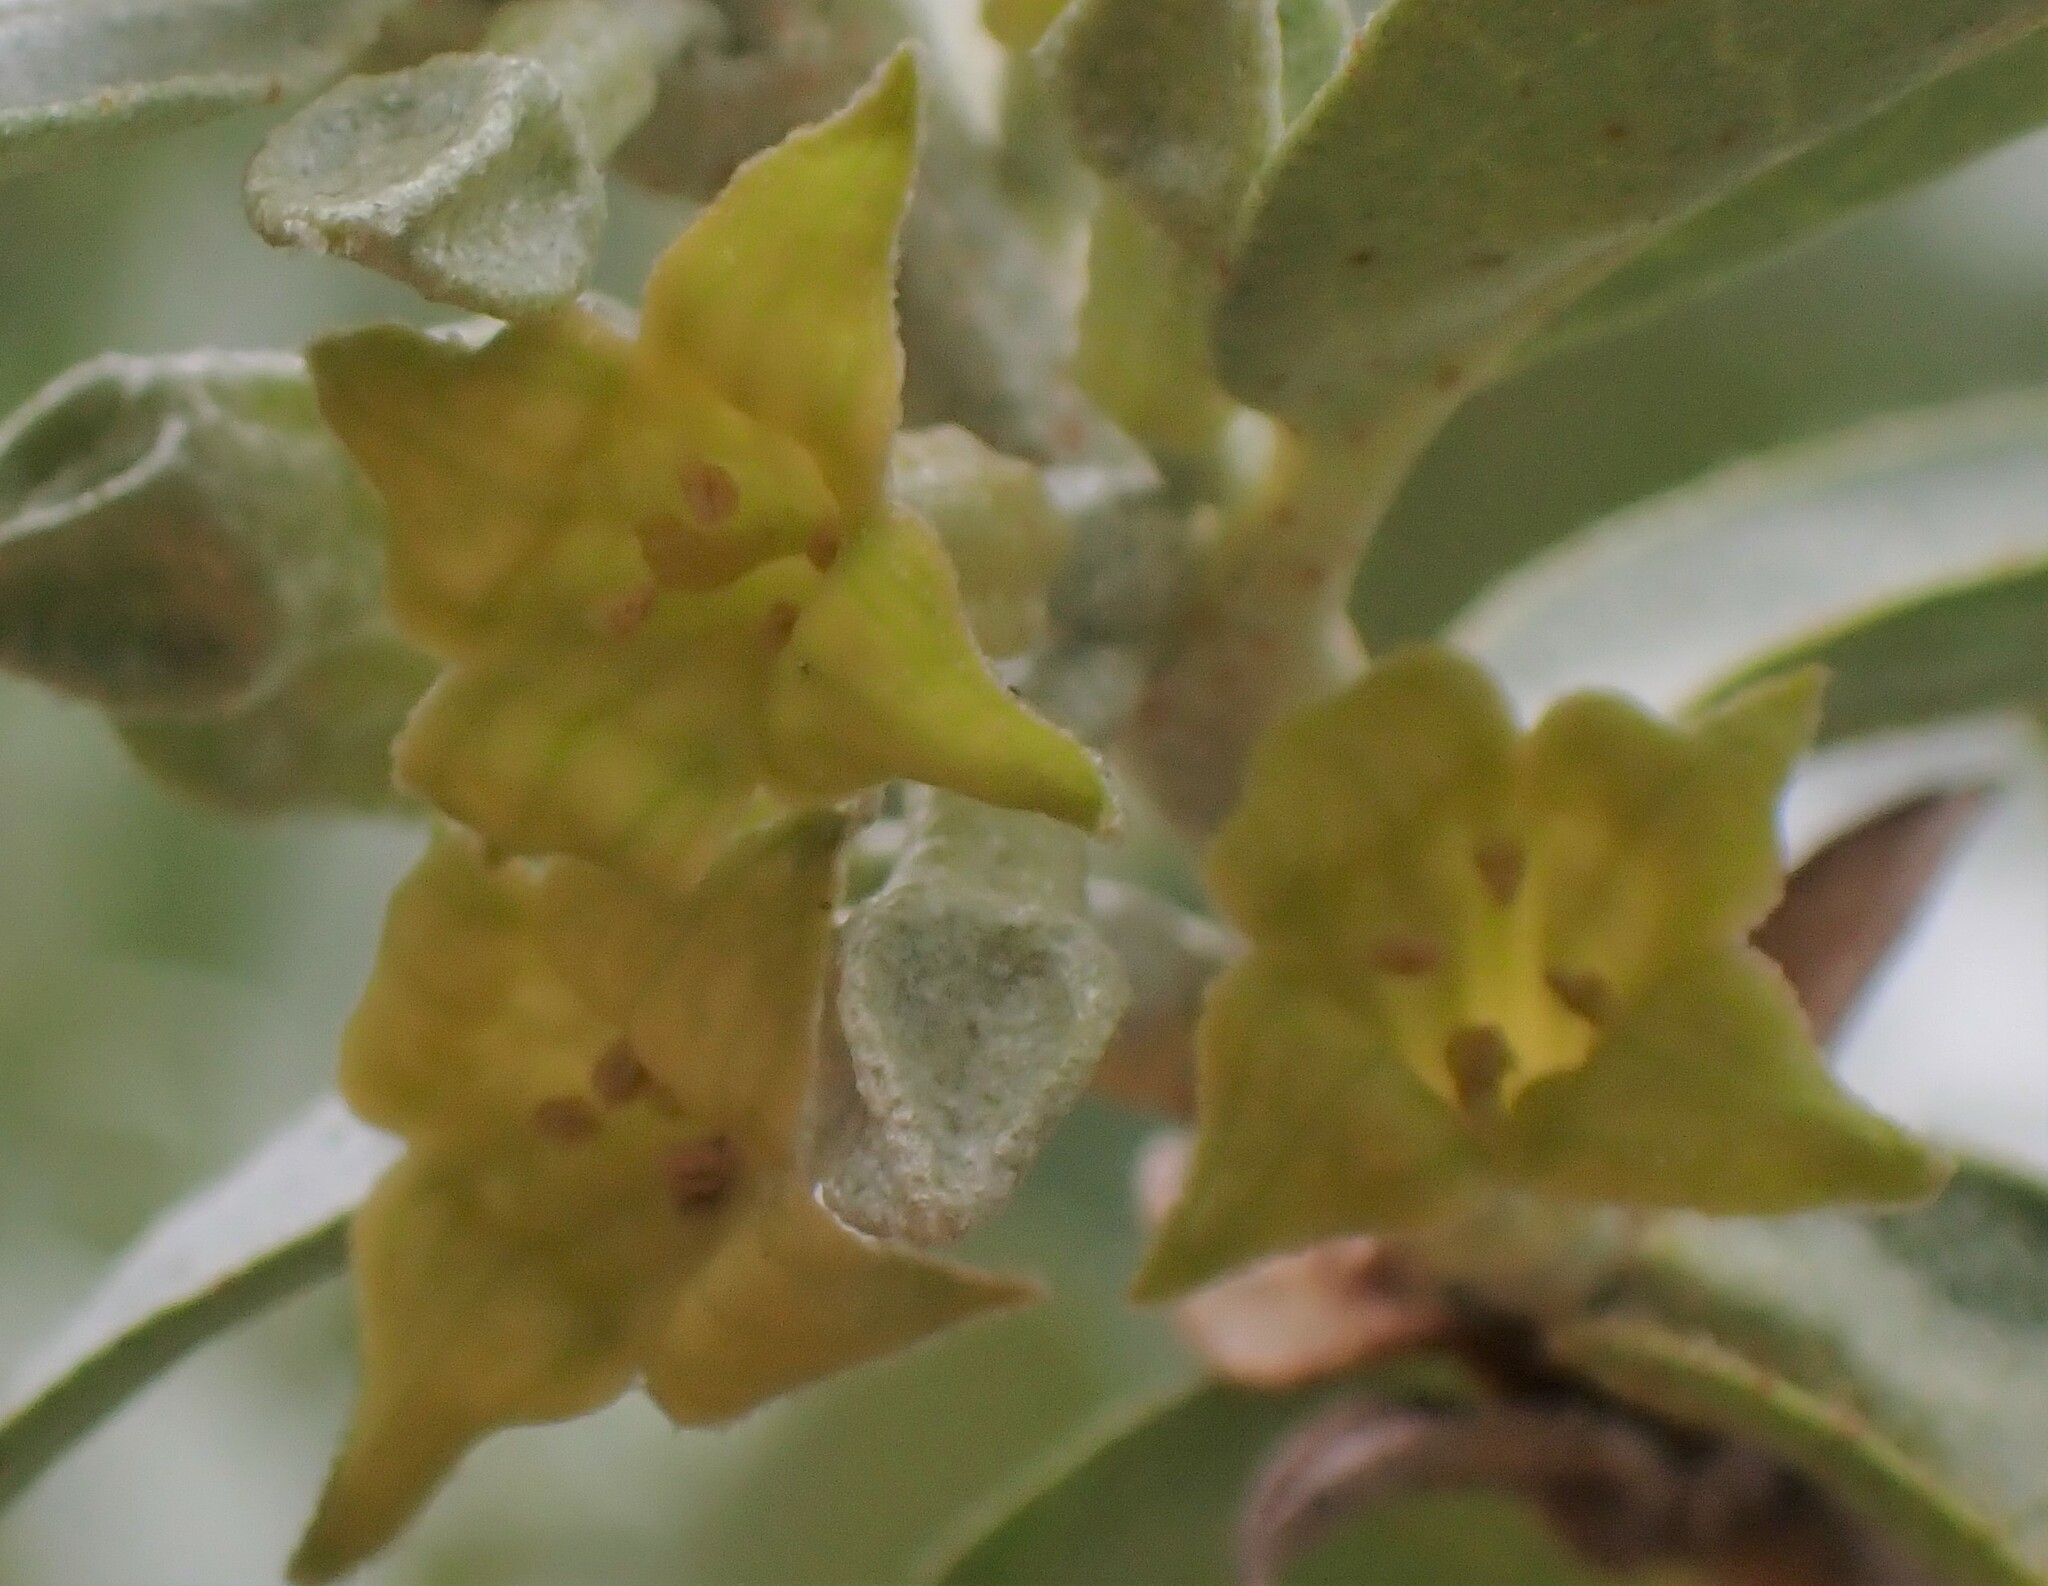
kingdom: Plantae
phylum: Tracheophyta
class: Magnoliopsida
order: Rosales
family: Elaeagnaceae
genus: Elaeagnus
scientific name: Elaeagnus commutata
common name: Silverberry
